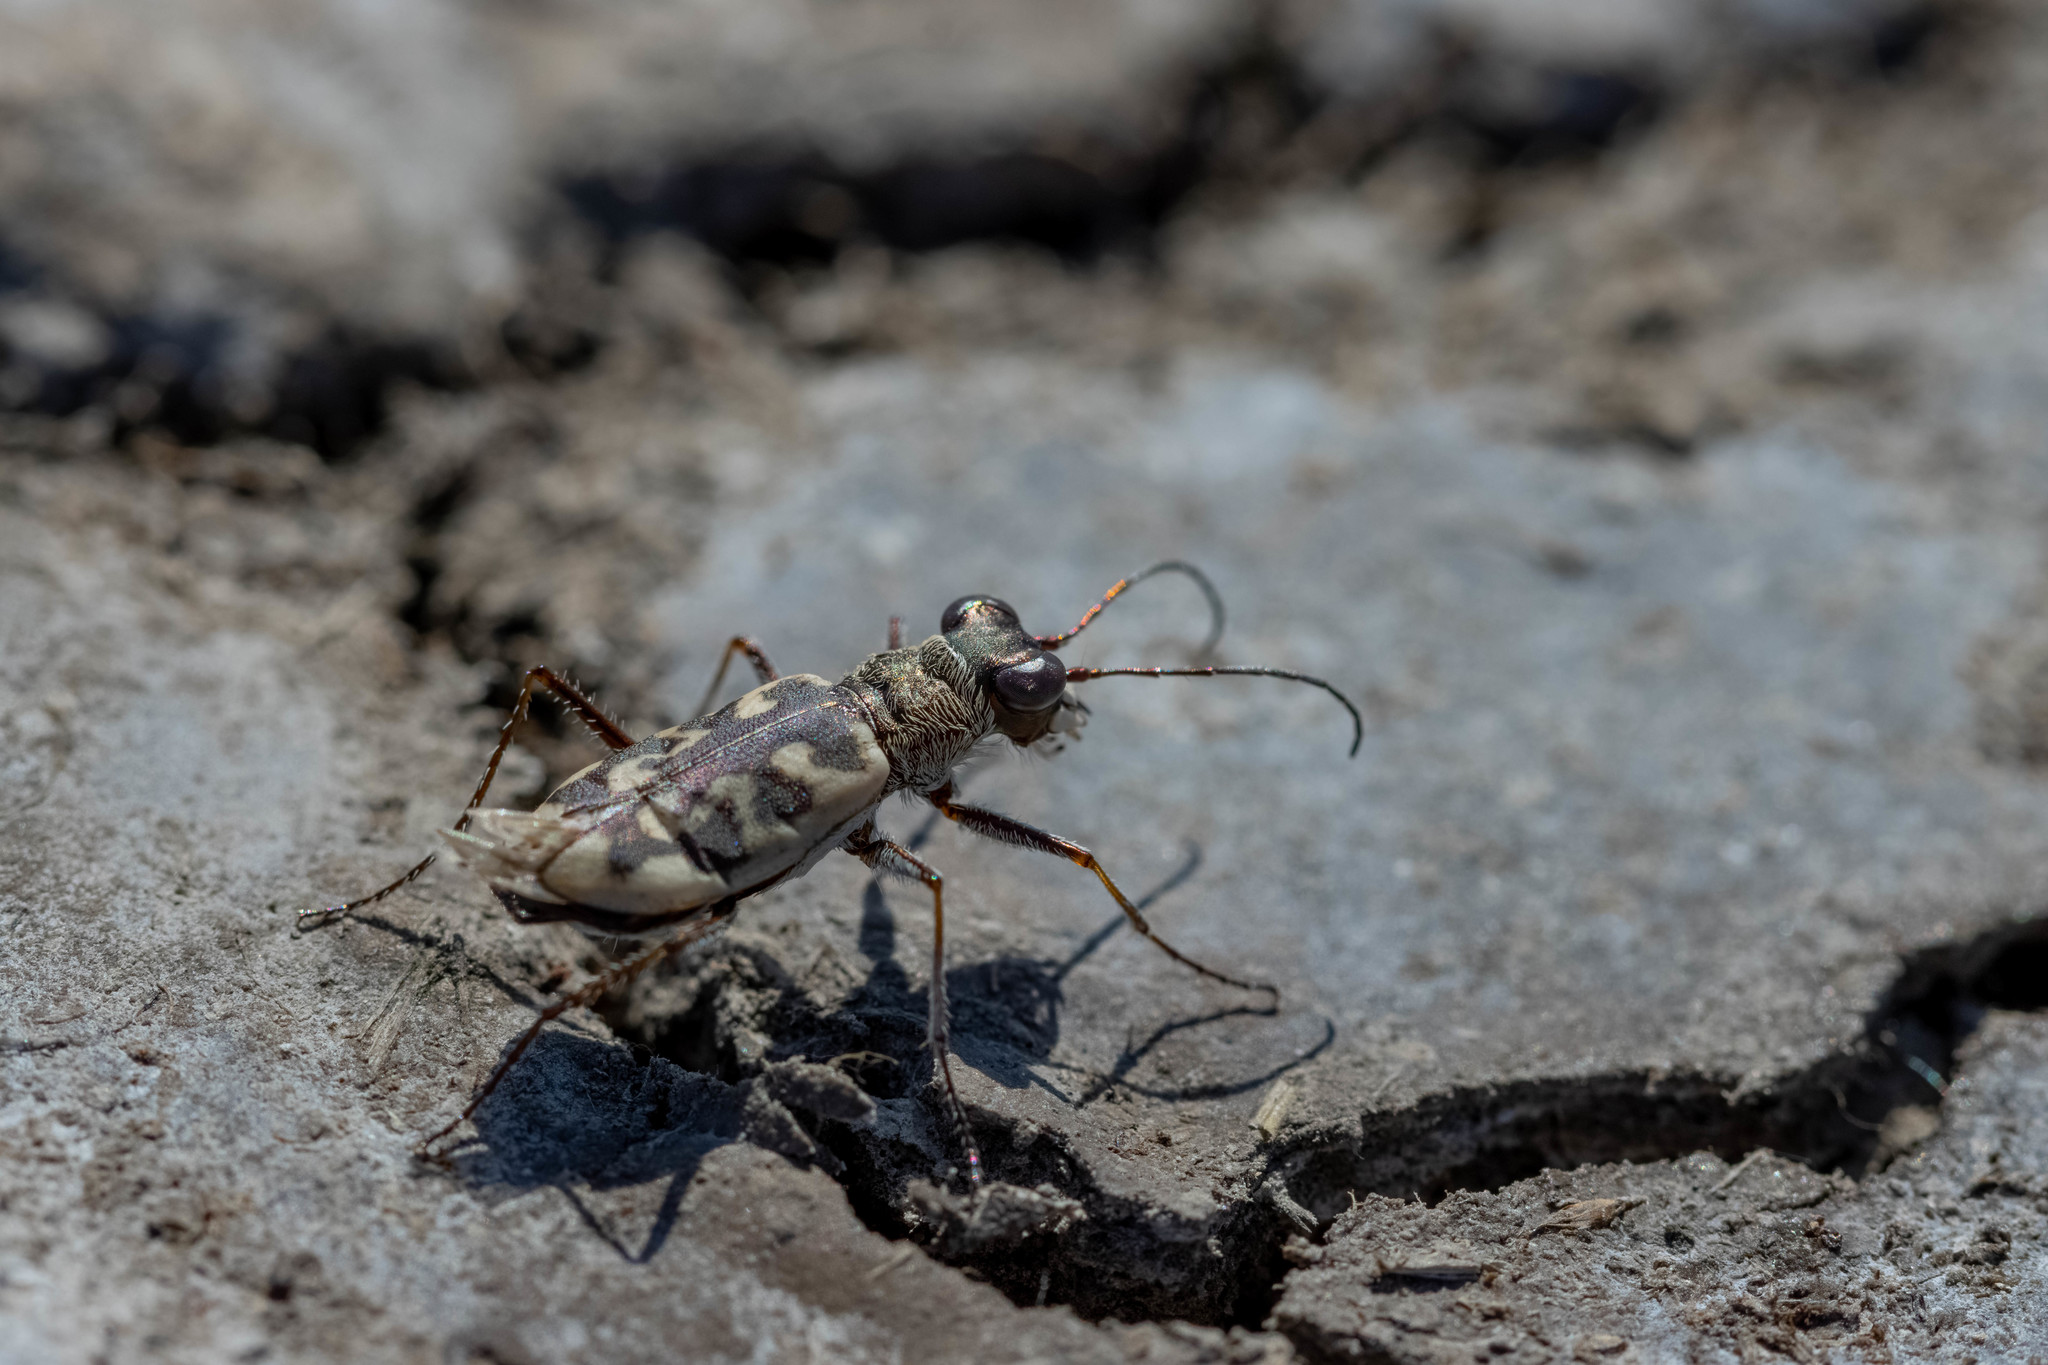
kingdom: Animalia
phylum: Arthropoda
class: Insecta
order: Coleoptera
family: Carabidae
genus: Cephalota
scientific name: Cephalota elegans
